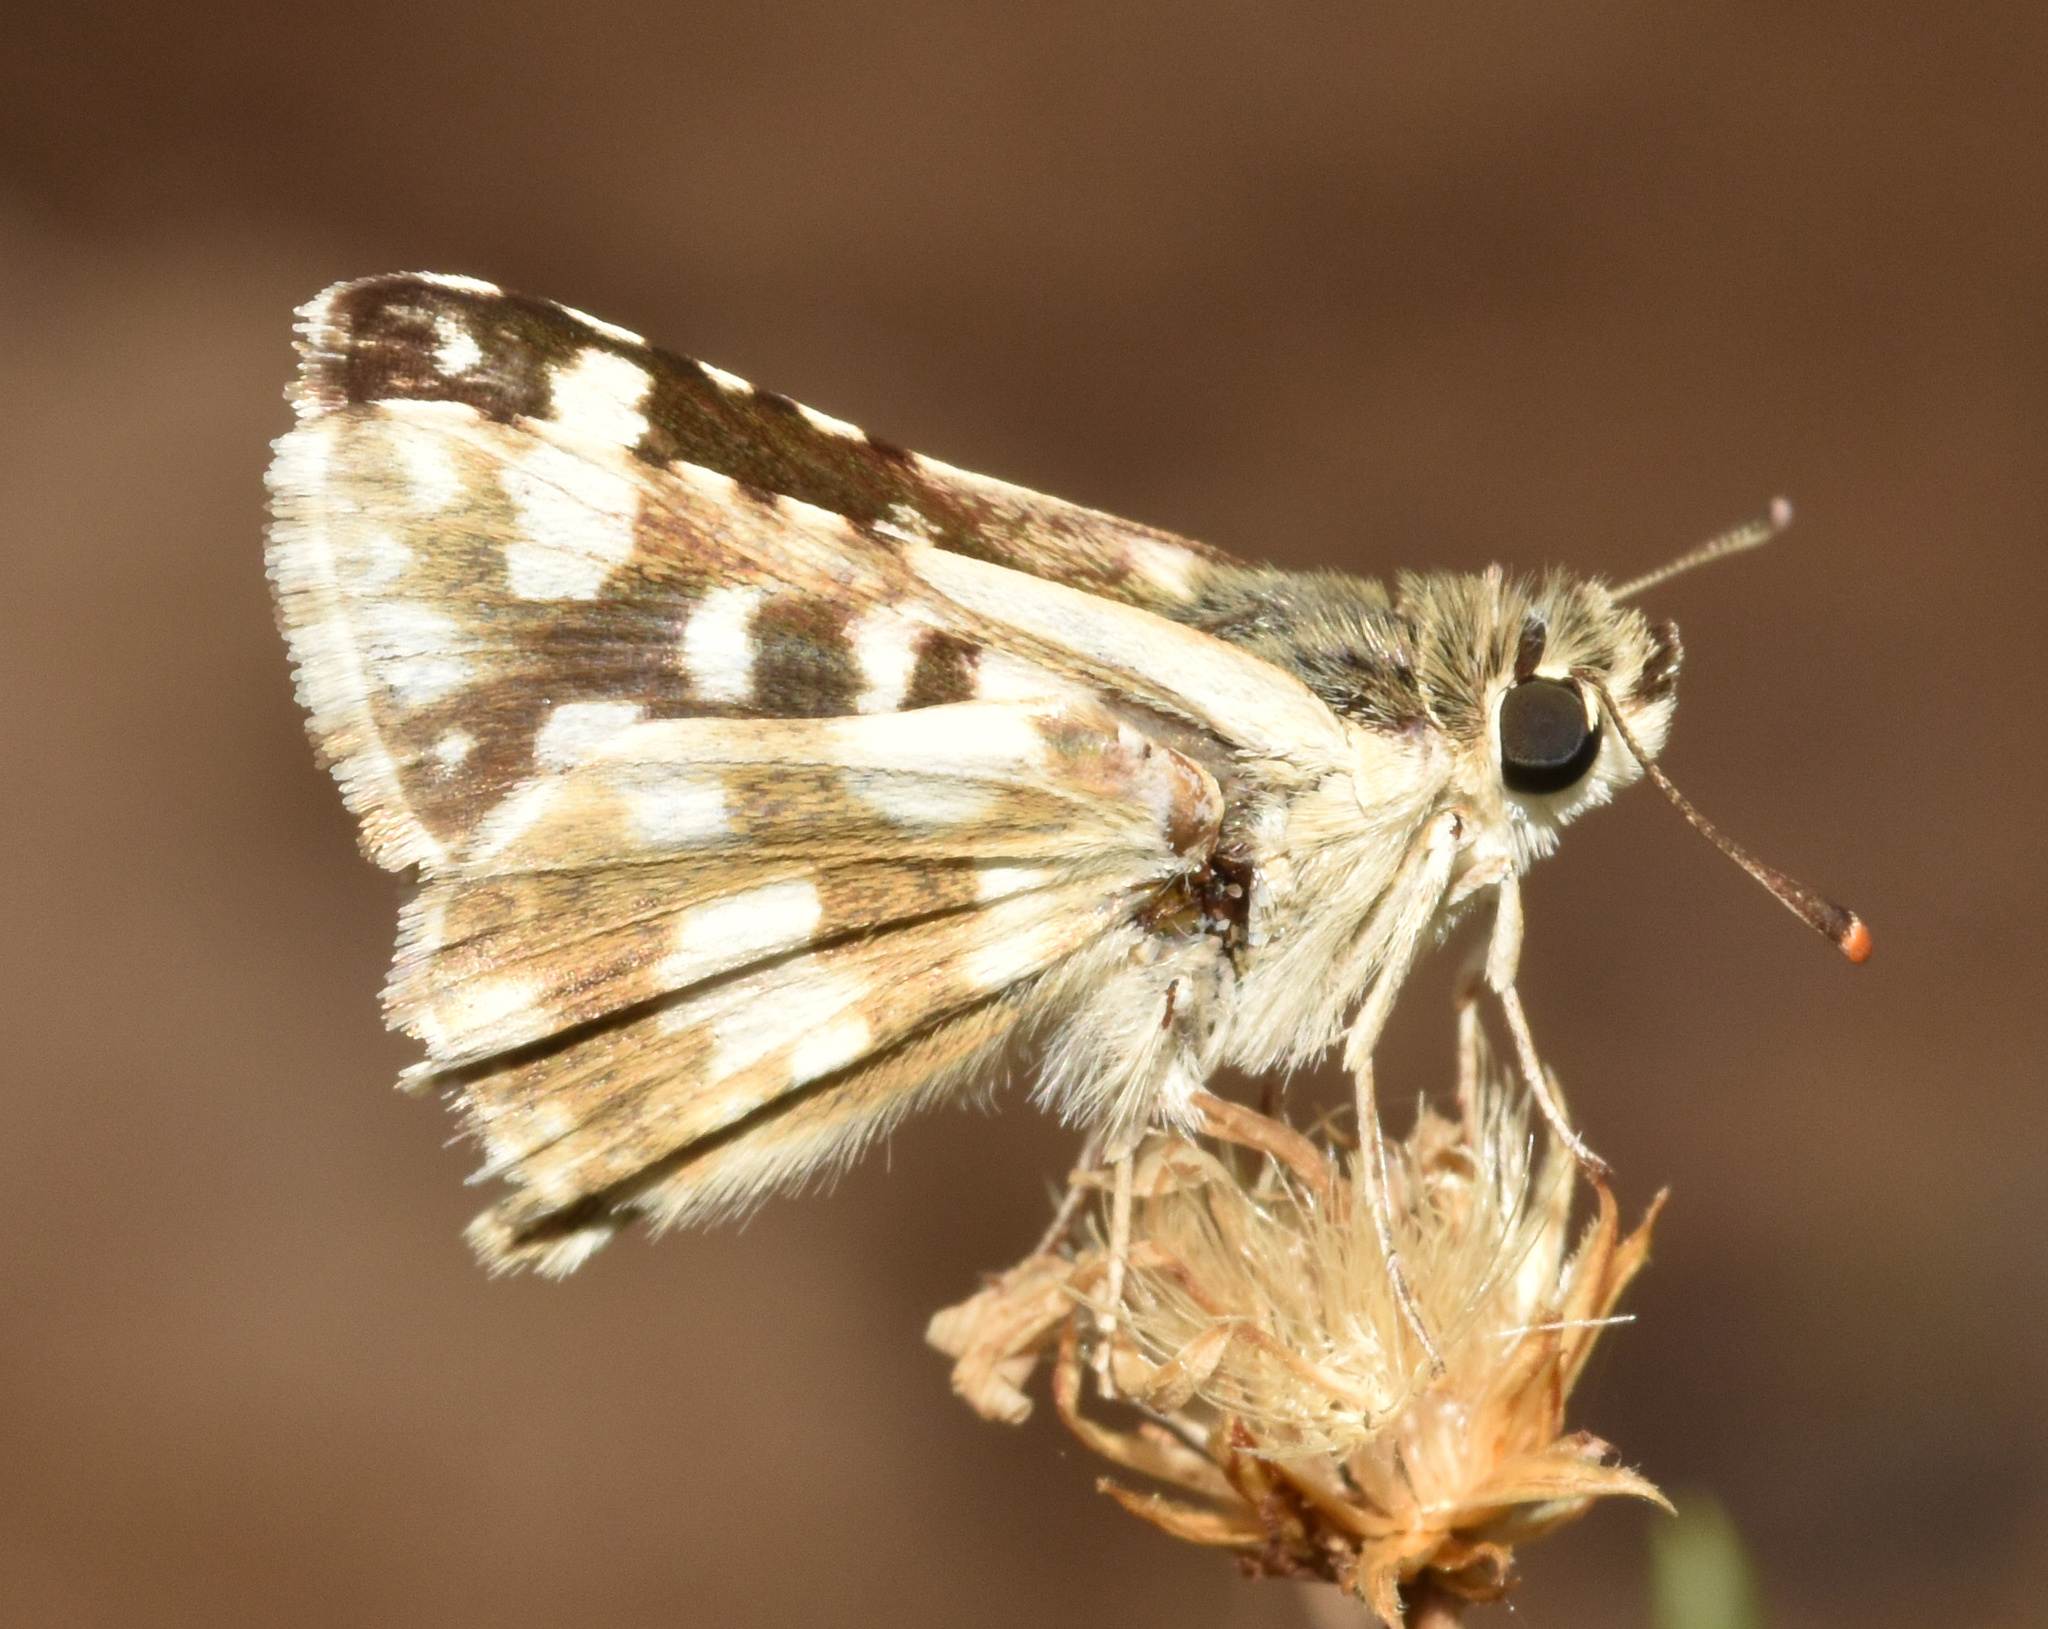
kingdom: Animalia
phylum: Arthropoda
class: Insecta
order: Lepidoptera
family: Hesperiidae
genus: Spialia
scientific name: Spialia spio
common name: Mountain sandman
